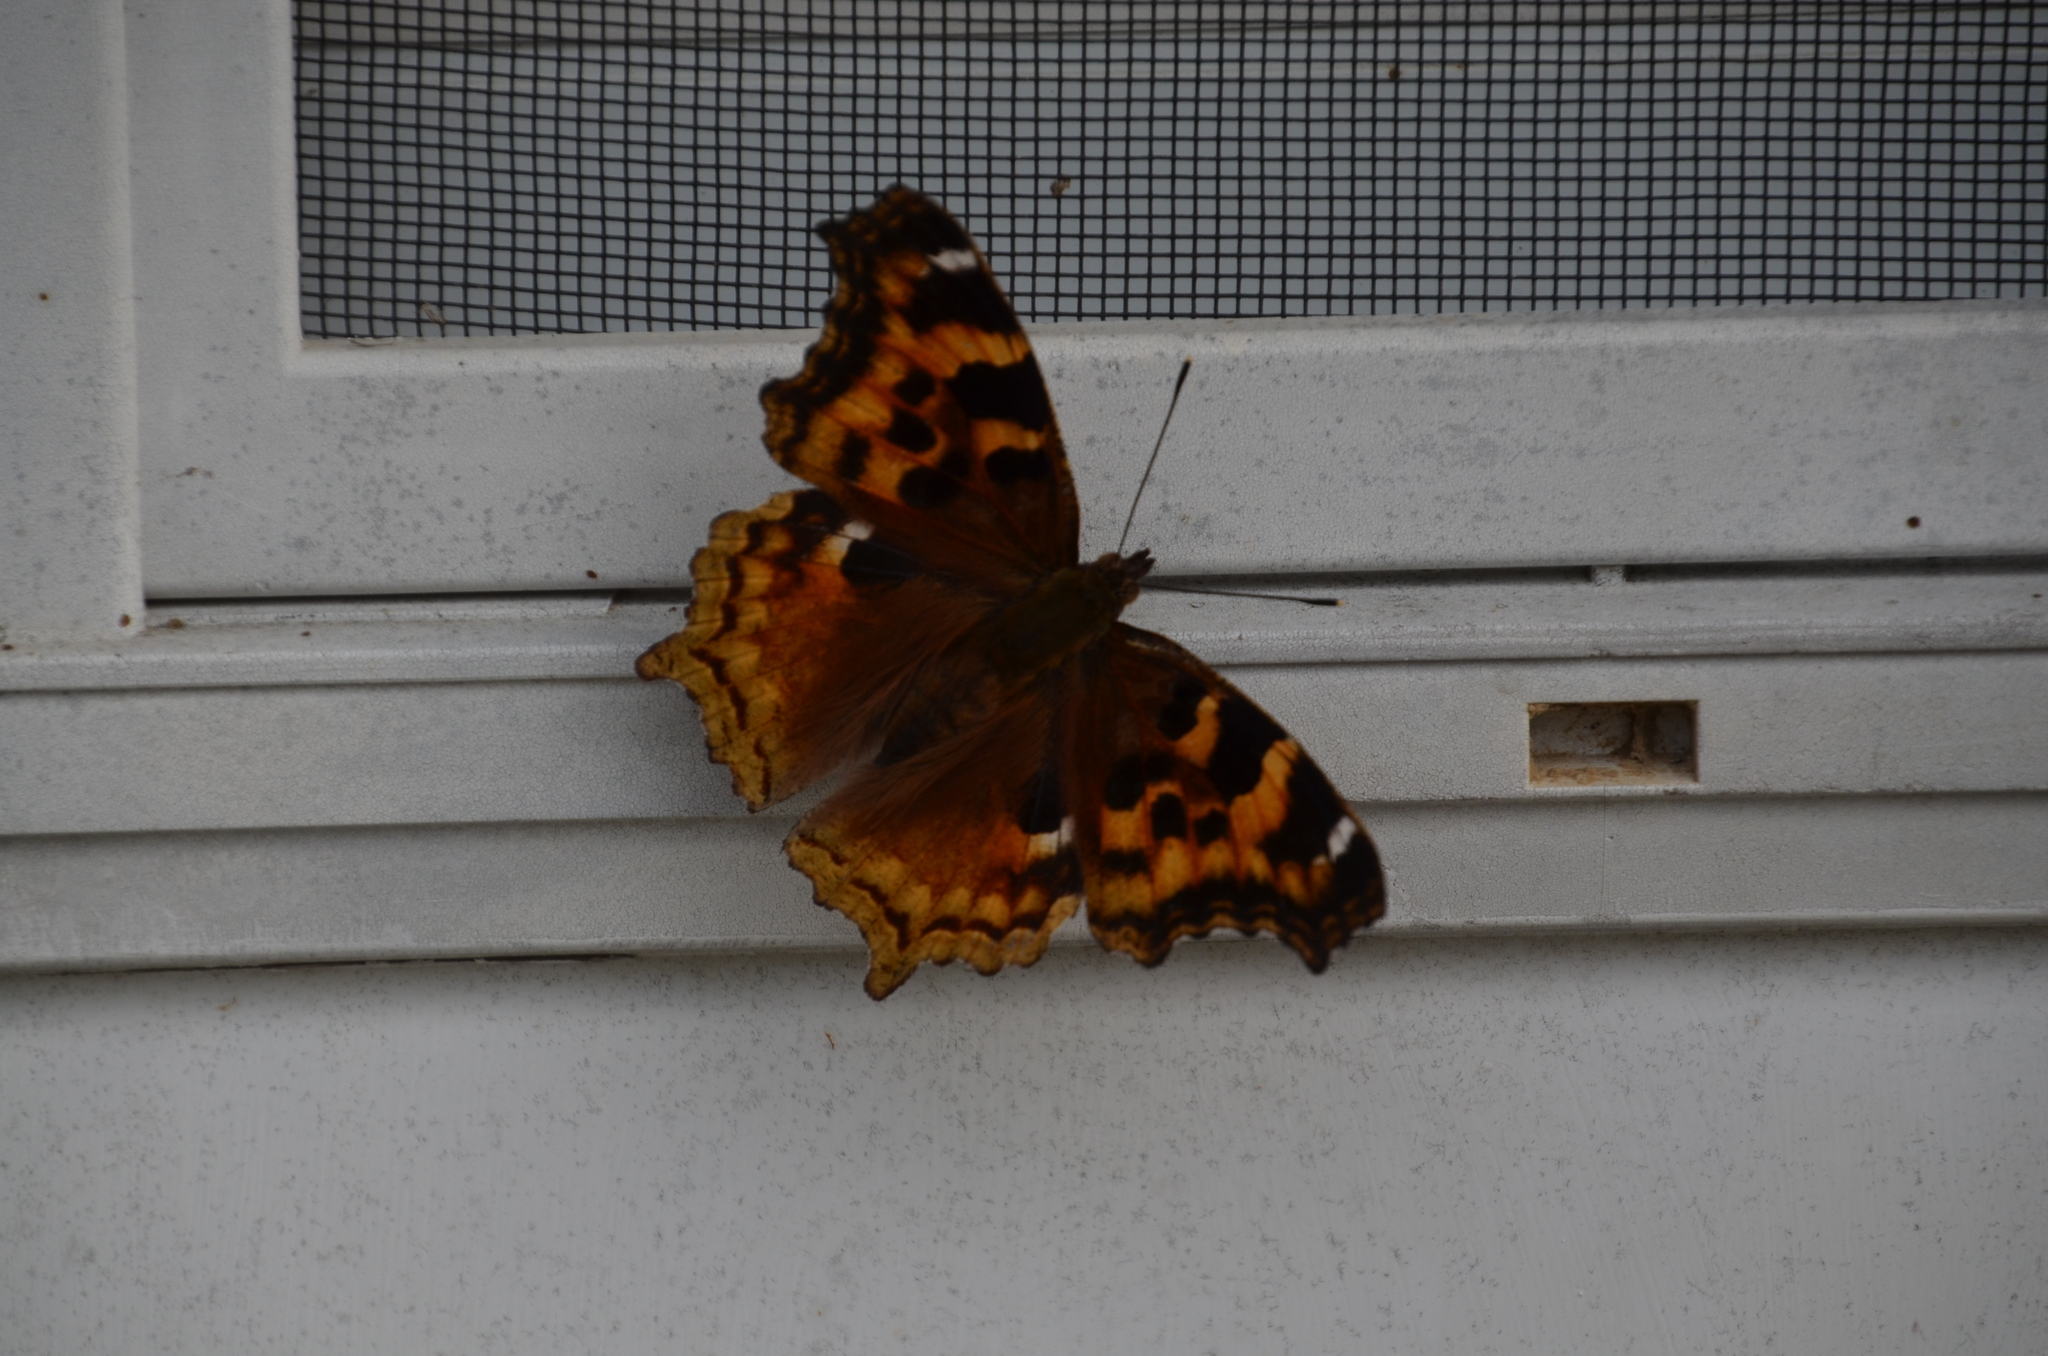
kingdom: Animalia
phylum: Arthropoda
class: Insecta
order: Lepidoptera
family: Nymphalidae
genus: Polygonia
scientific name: Polygonia vaualbum
